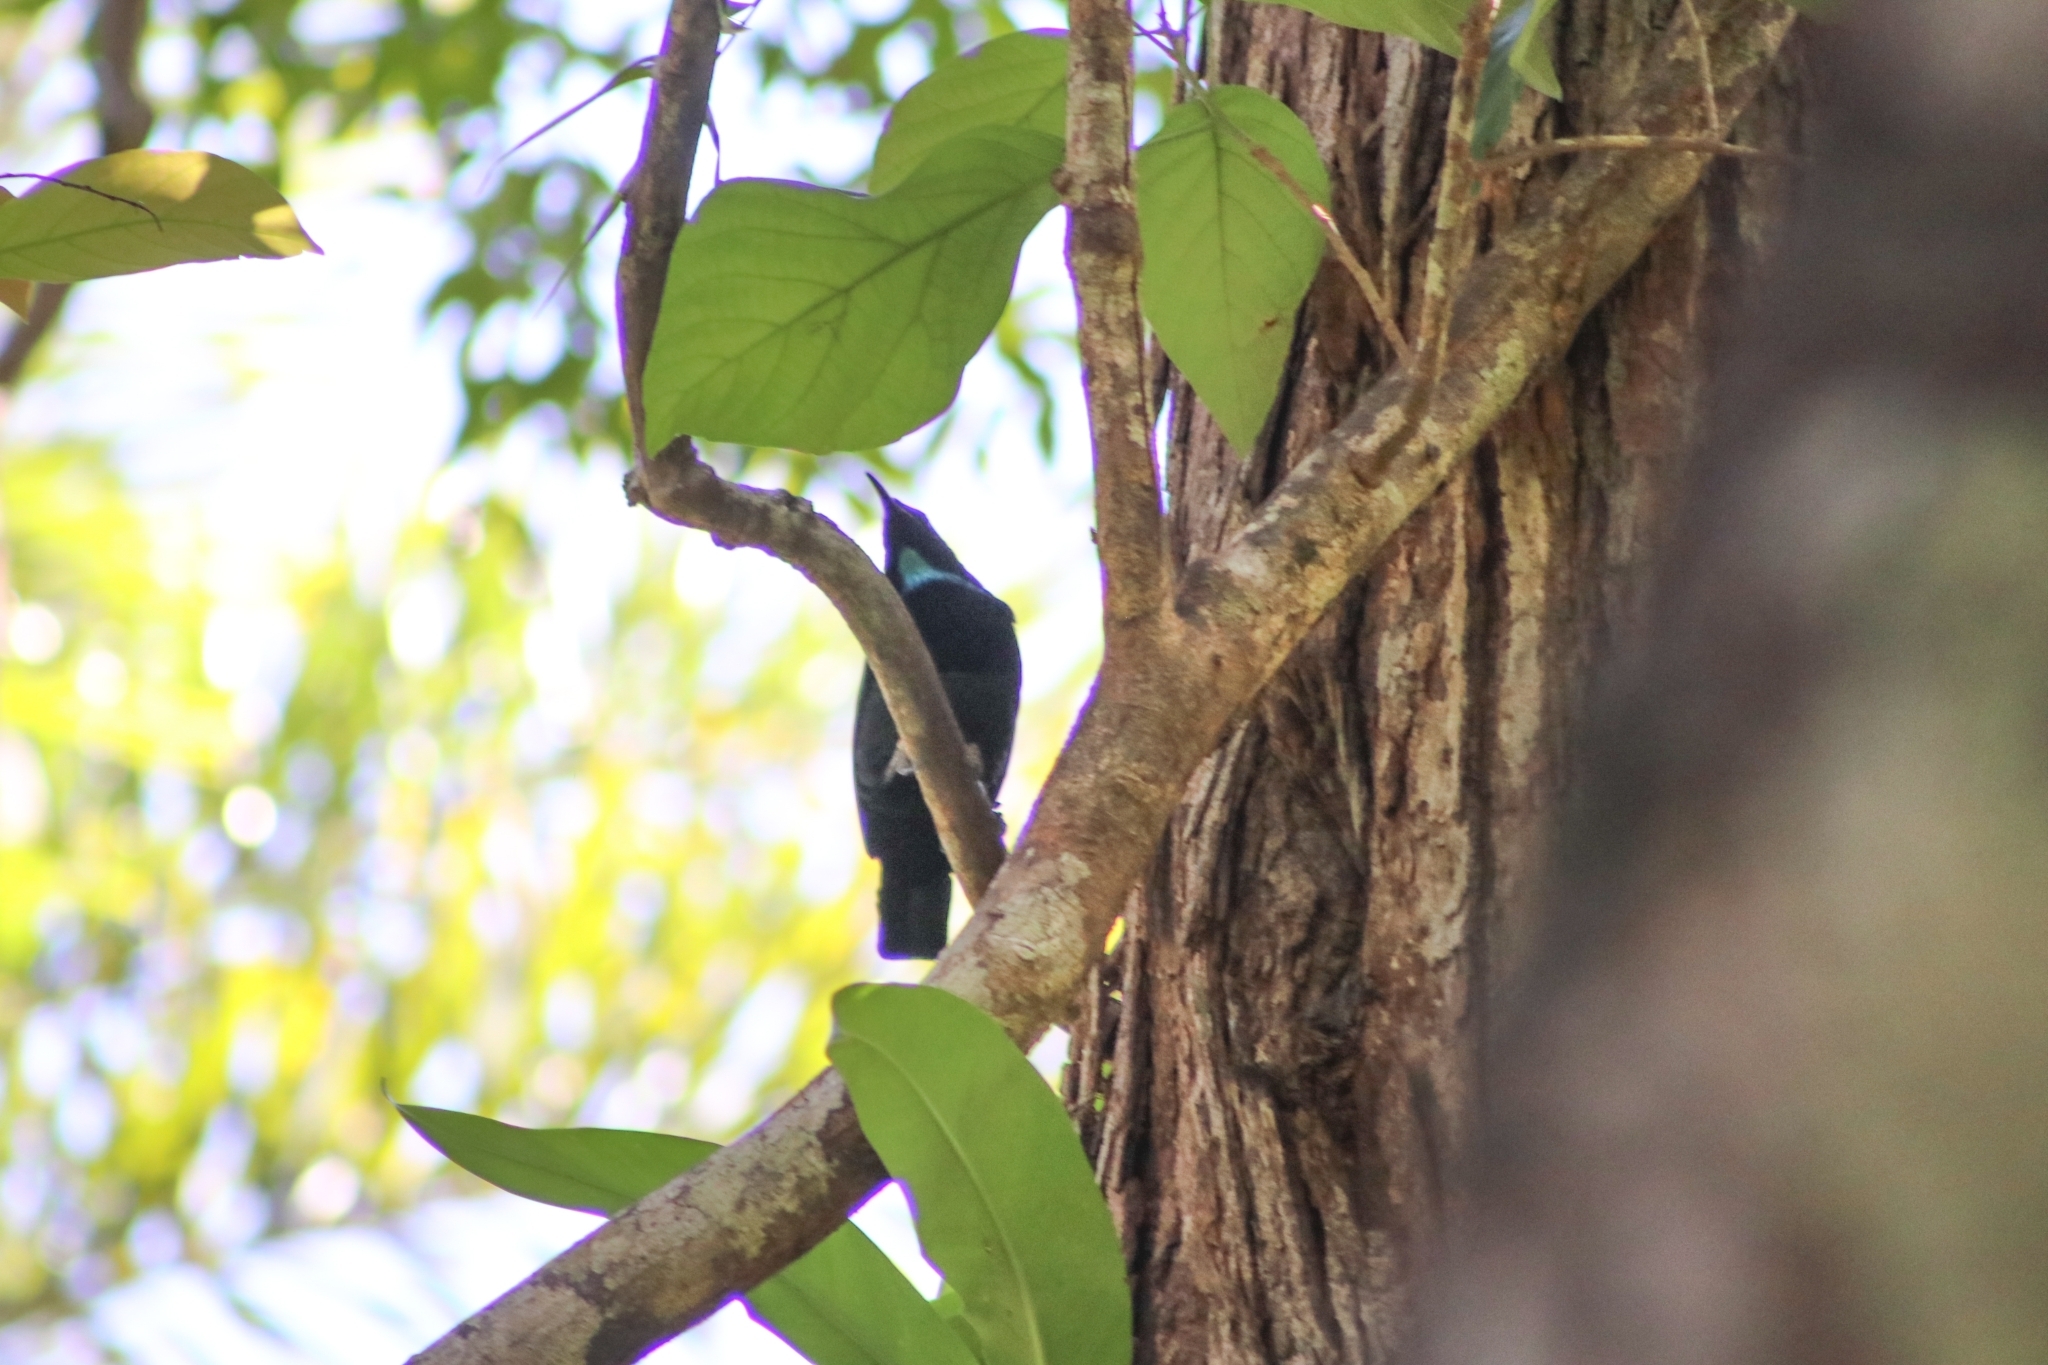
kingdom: Animalia
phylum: Chordata
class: Aves
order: Passeriformes
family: Paradisaeidae
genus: Ptiloris
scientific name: Ptiloris victoriae
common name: Victoria's riflebird
